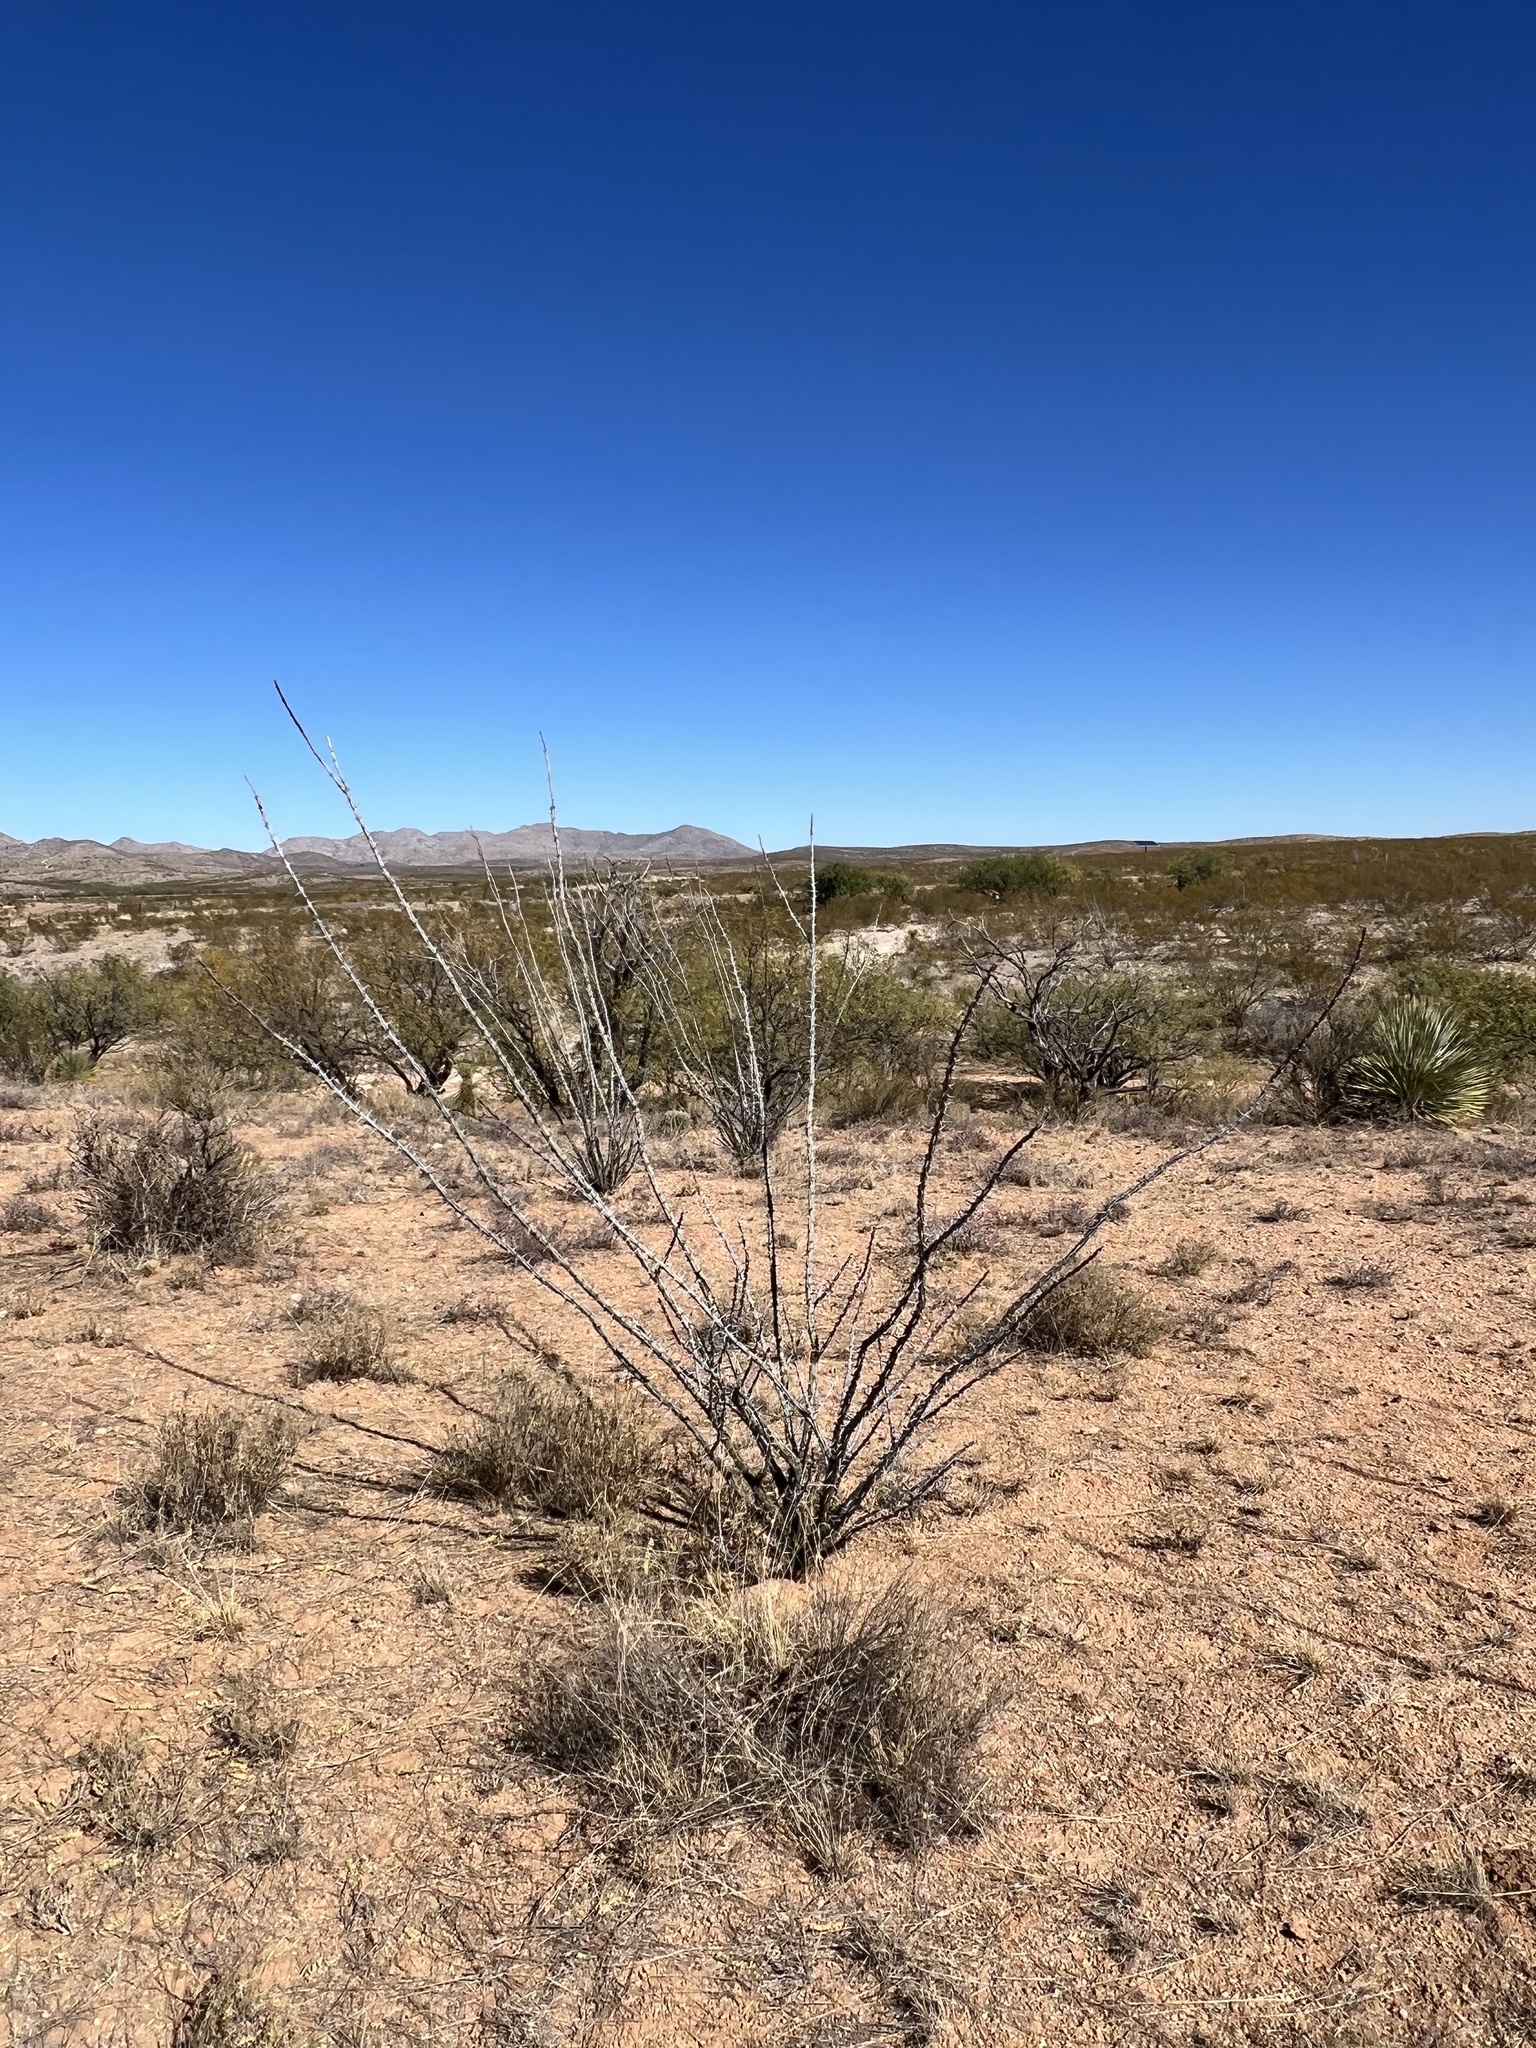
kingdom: Plantae
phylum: Tracheophyta
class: Magnoliopsida
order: Ericales
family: Fouquieriaceae
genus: Fouquieria
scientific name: Fouquieria splendens
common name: Vine-cactus
